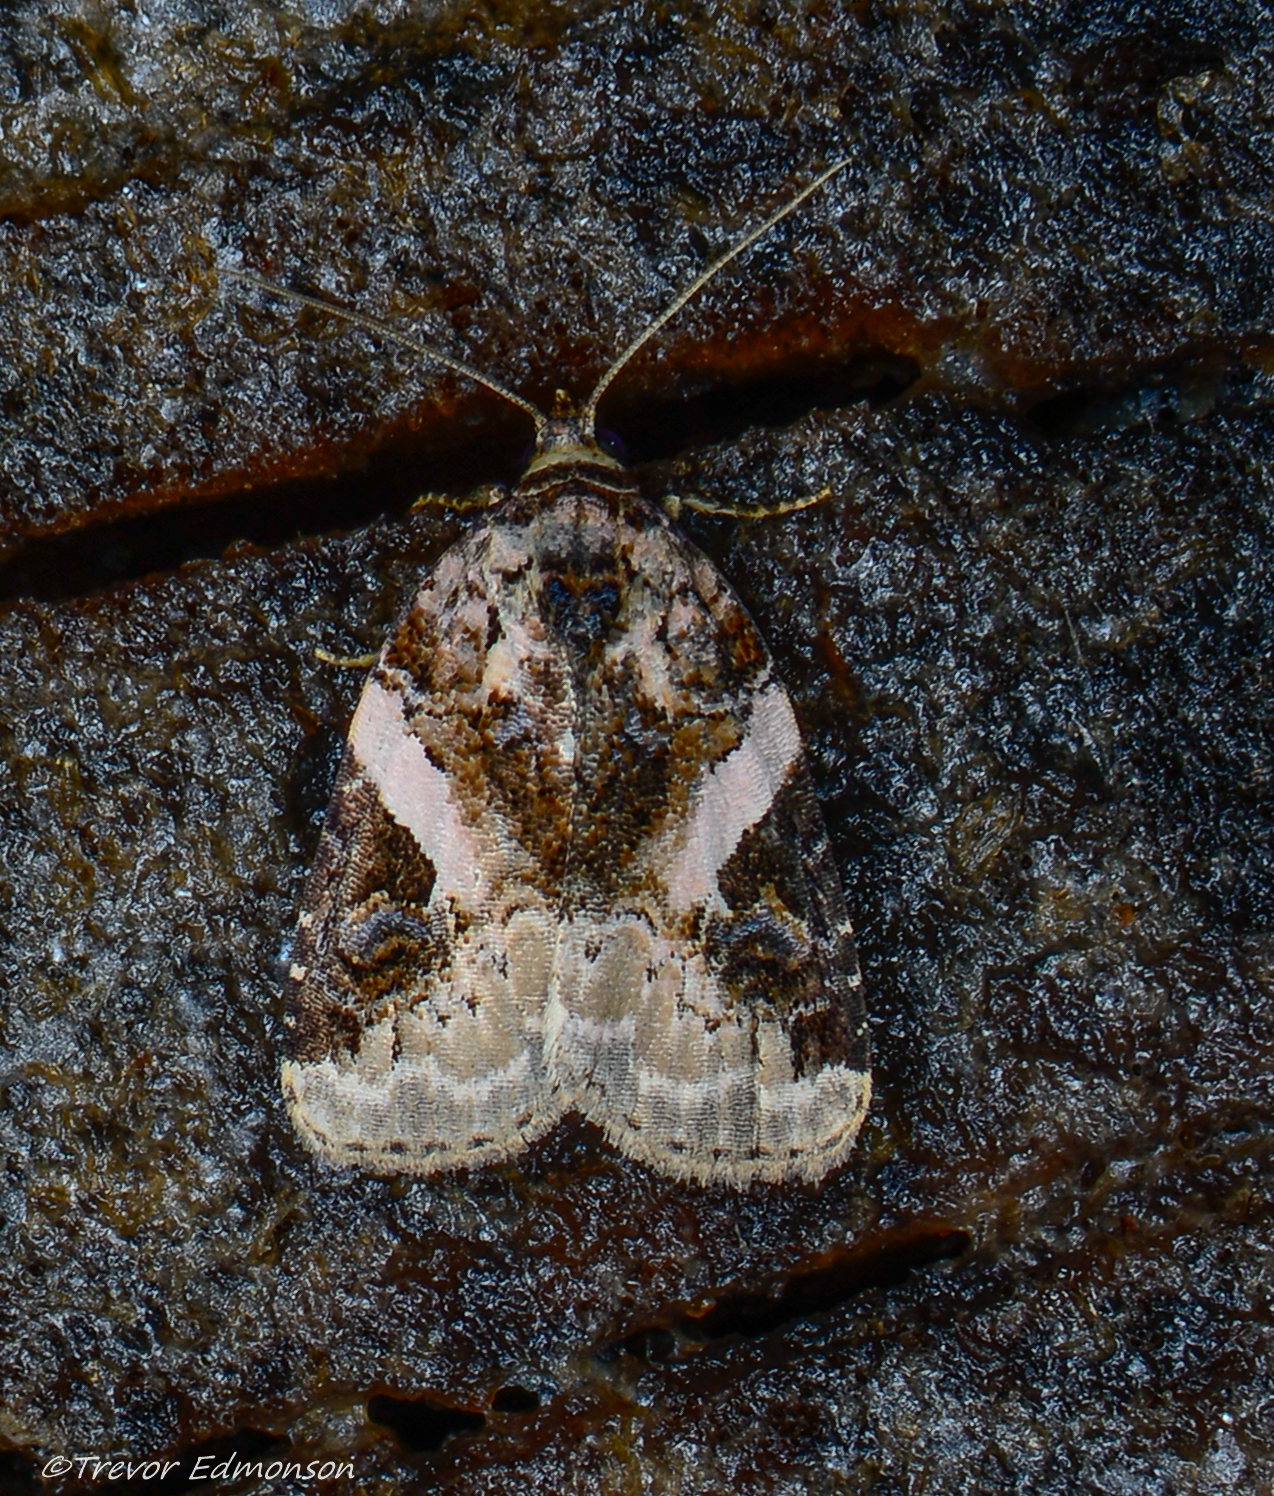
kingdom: Animalia
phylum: Arthropoda
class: Insecta
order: Lepidoptera
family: Noctuidae
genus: Pseudeustrotia
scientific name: Pseudeustrotia carneola
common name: Pink-barred lithacodia moth
